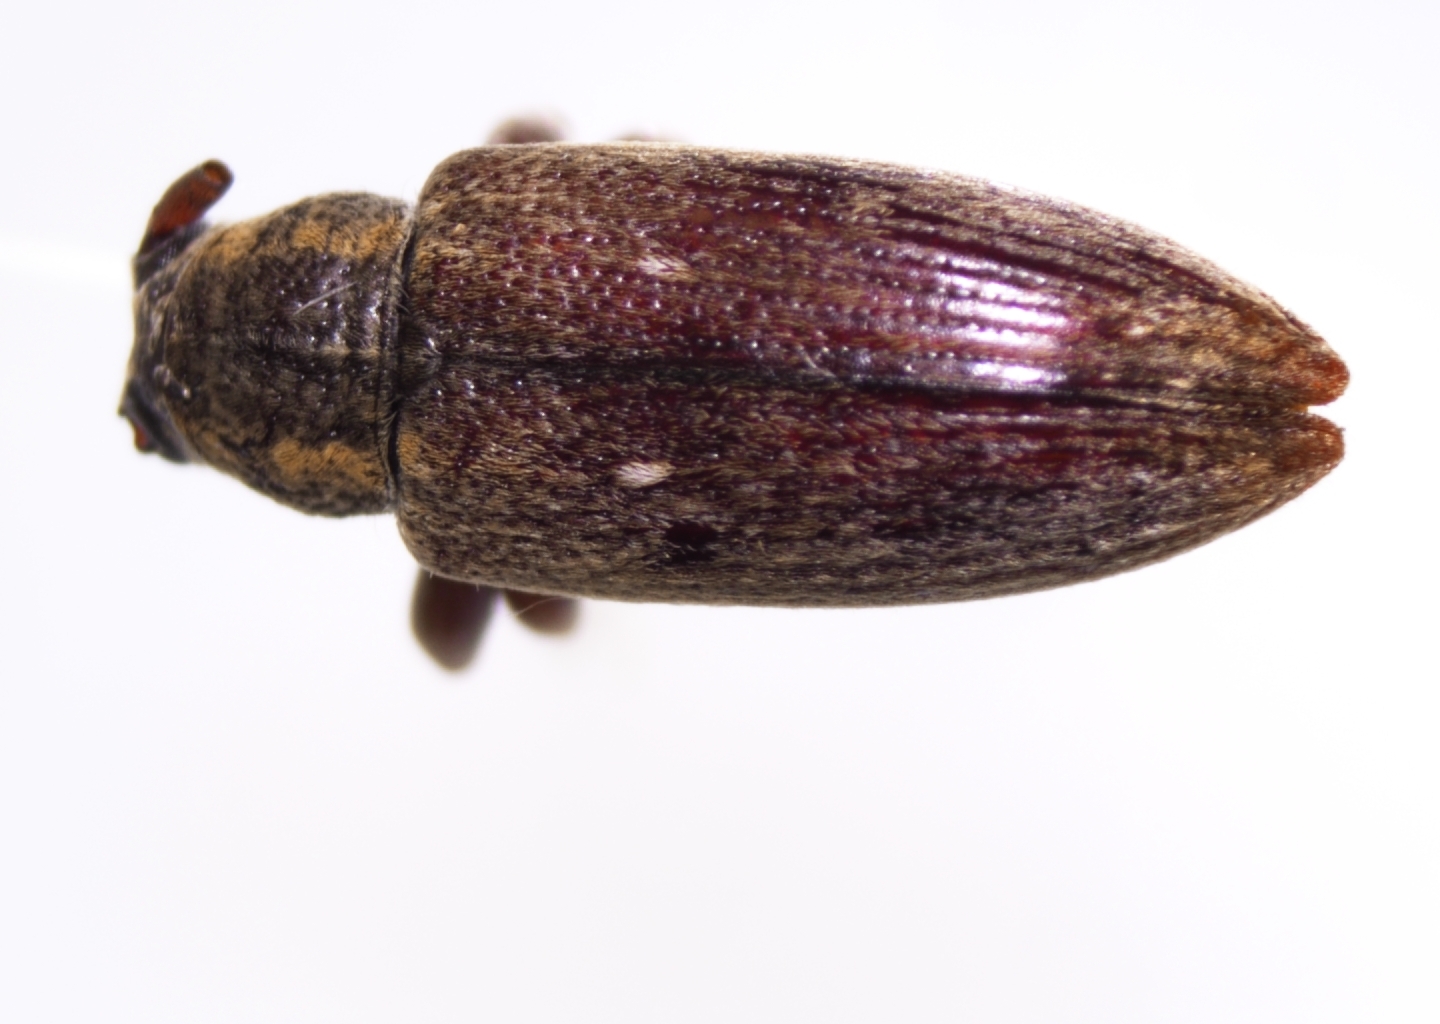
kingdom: Animalia
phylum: Arthropoda
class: Insecta
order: Coleoptera
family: Cerambycidae
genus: Oopsis
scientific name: Oopsis nutator
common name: Oopsis long-horned beetle
